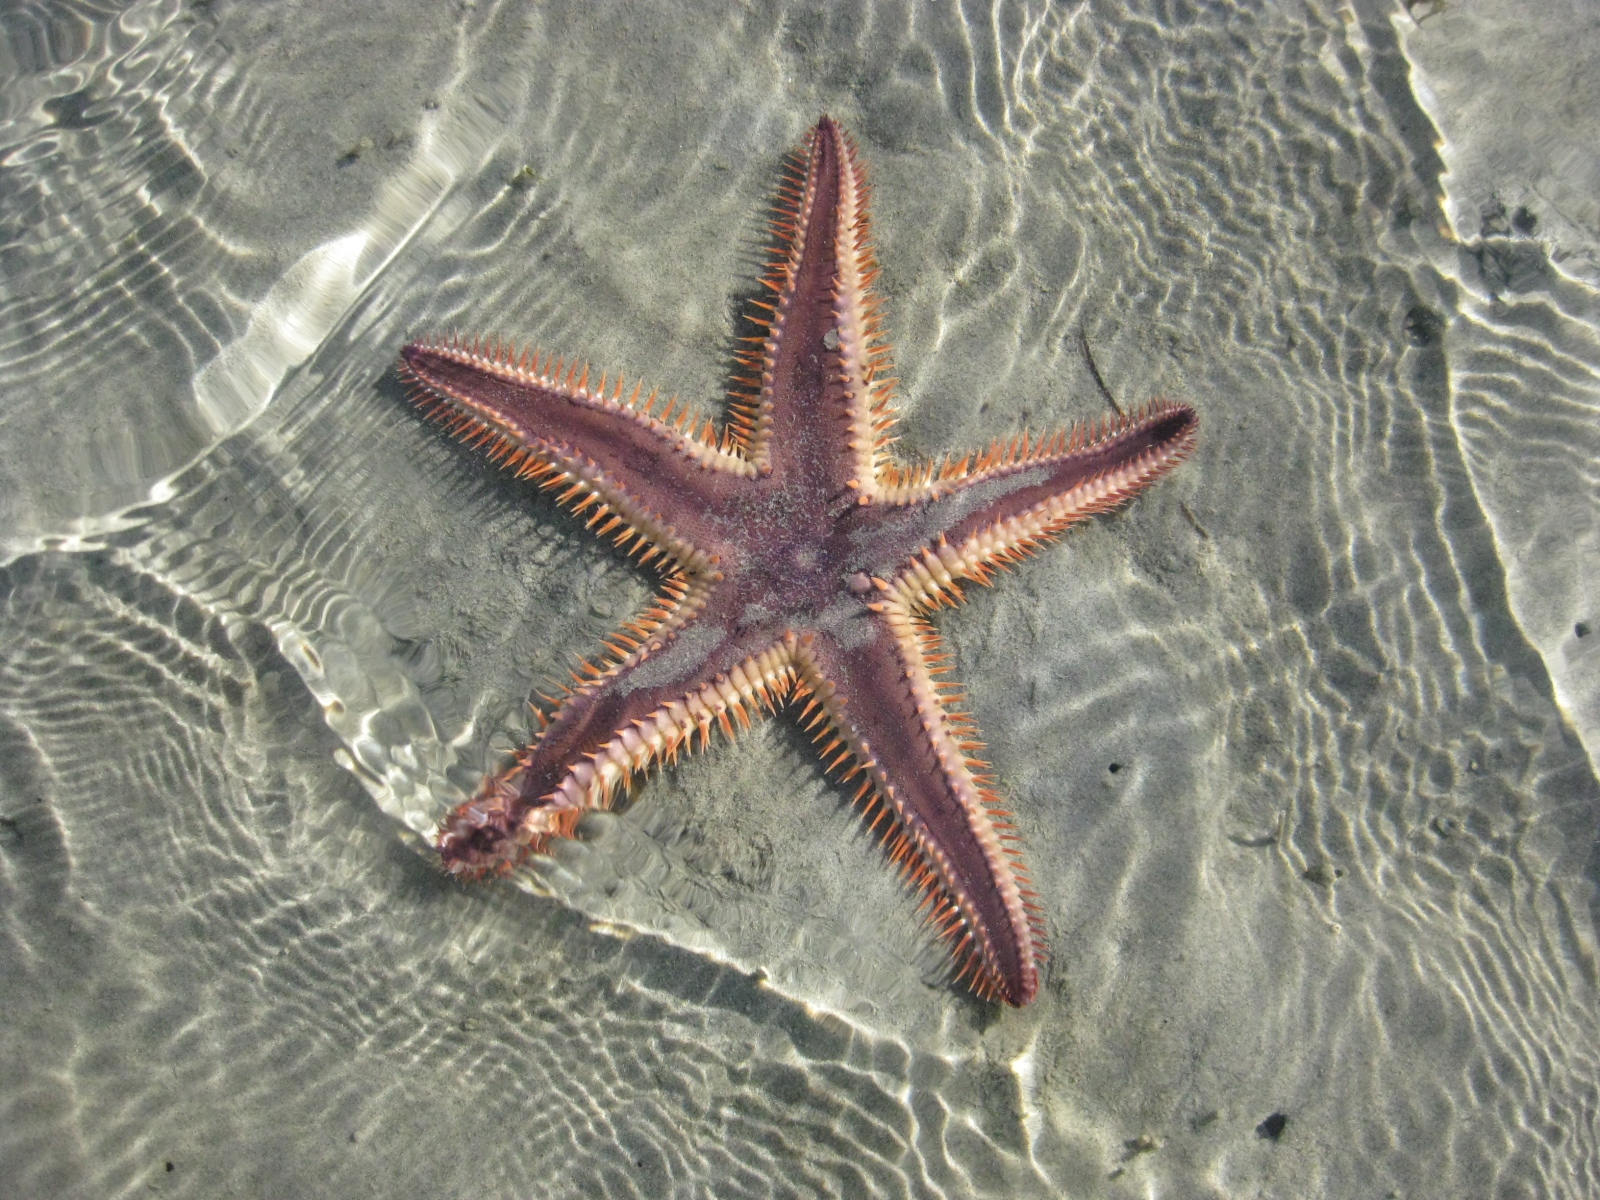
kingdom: Animalia
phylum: Echinodermata
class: Asteroidea
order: Paxillosida
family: Astropectinidae
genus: Astropecten
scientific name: Astropecten polyacanthus
